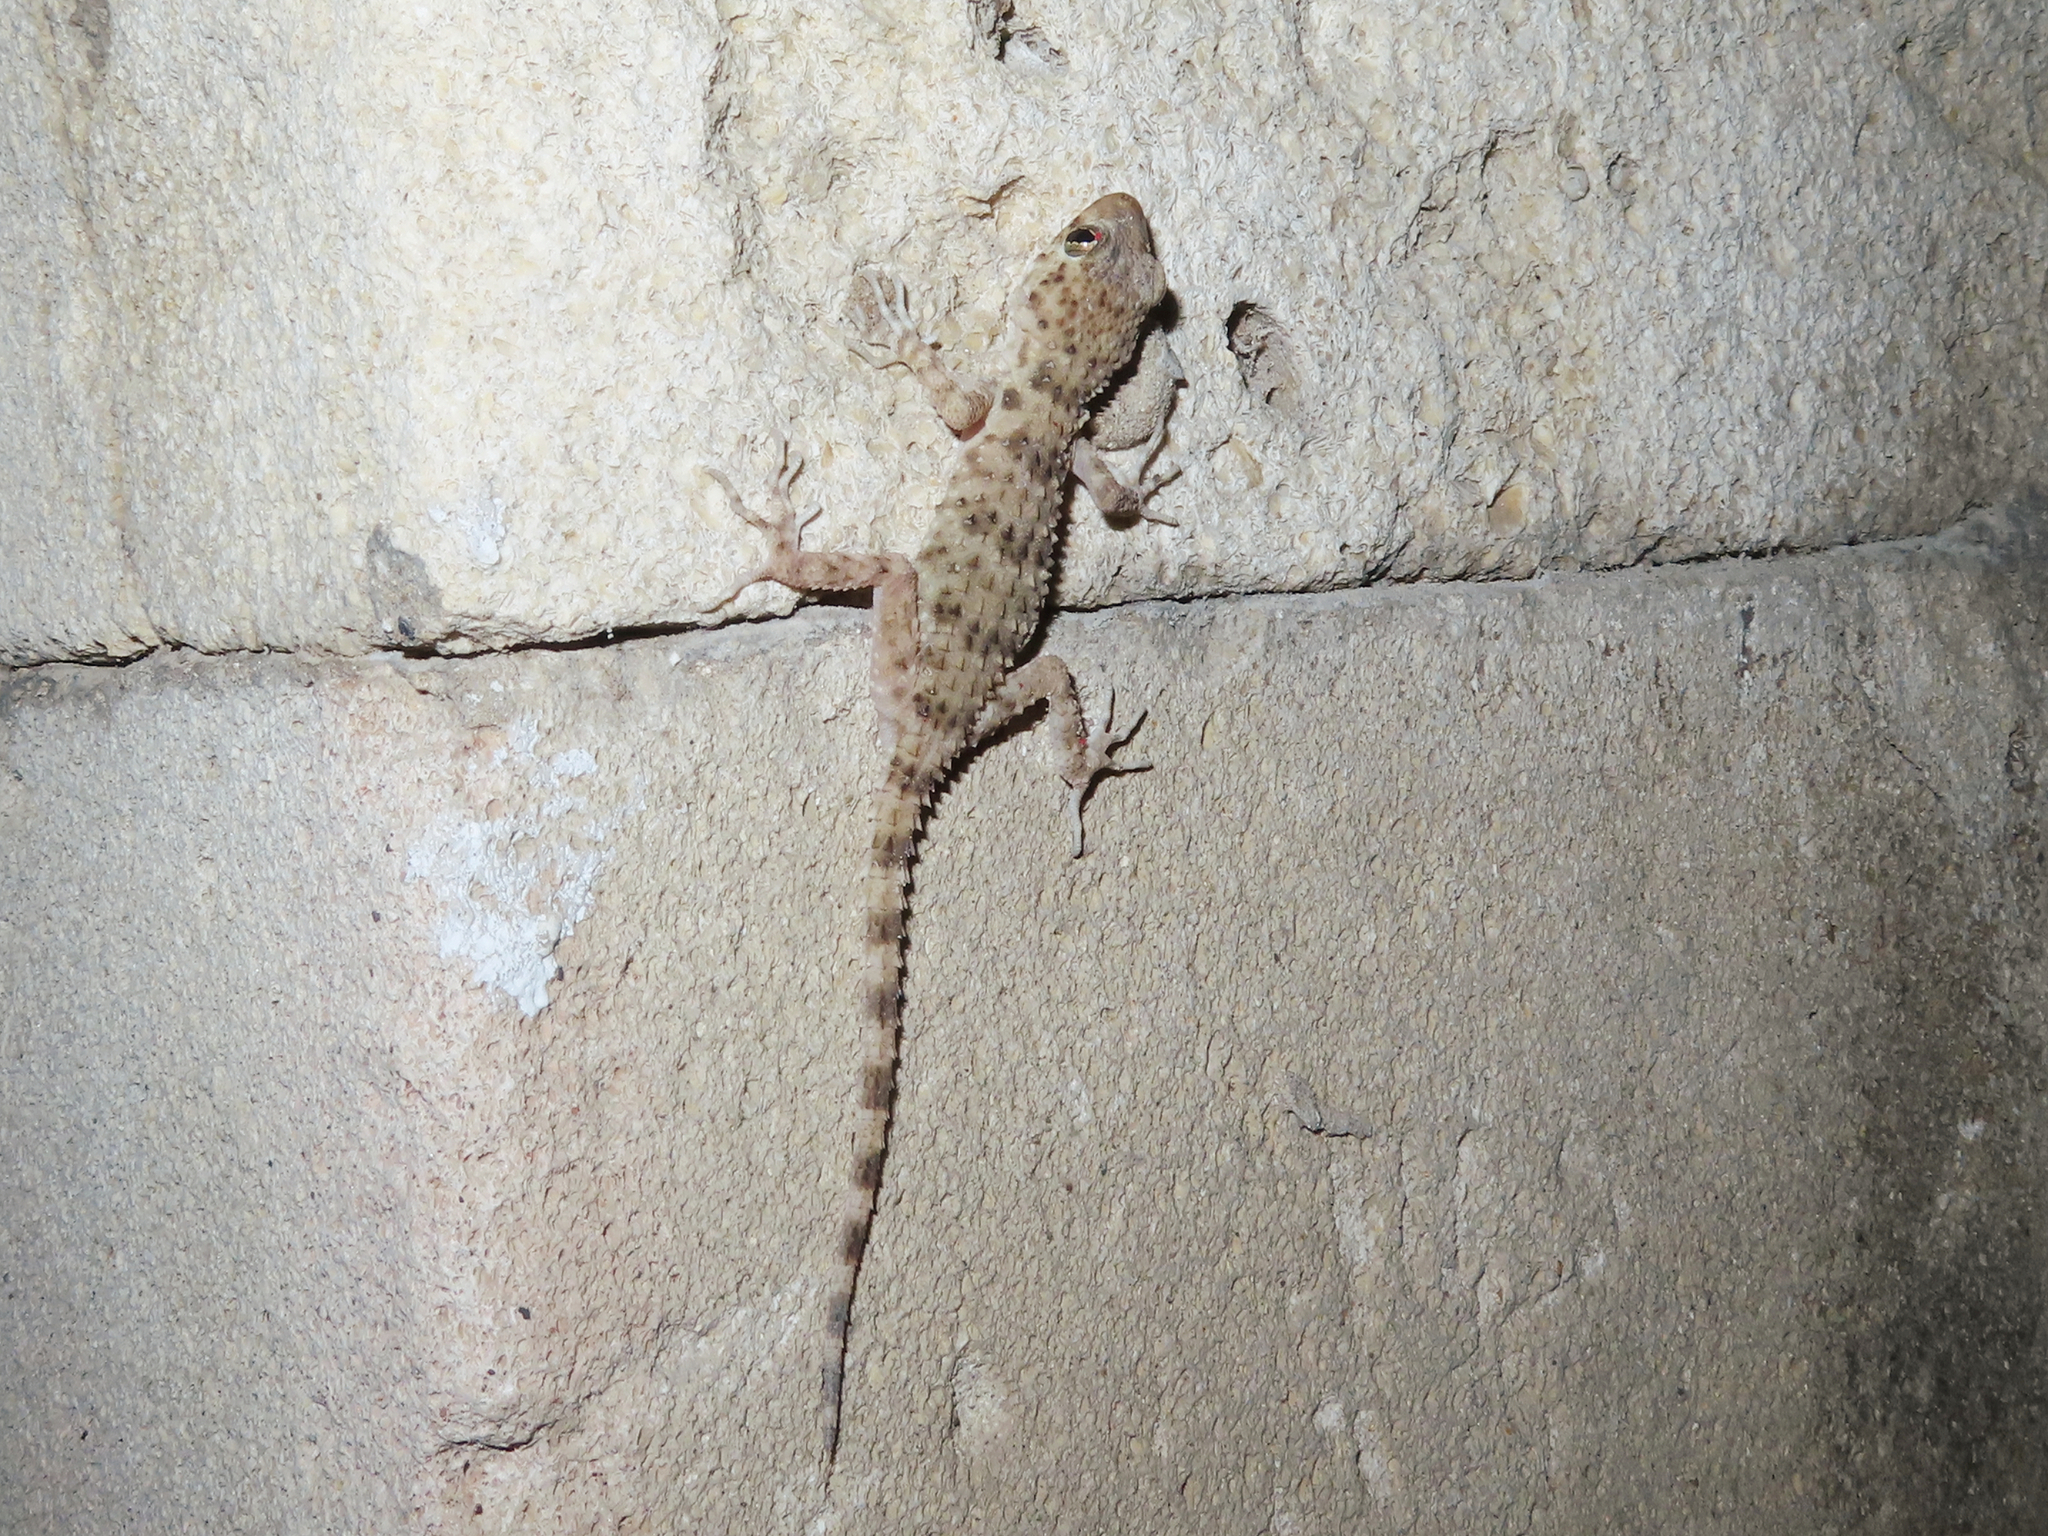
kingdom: Animalia
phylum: Chordata
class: Squamata
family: Gekkonidae
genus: Tenuidactylus
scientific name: Tenuidactylus caspius
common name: Caspian bent-toed gecko
